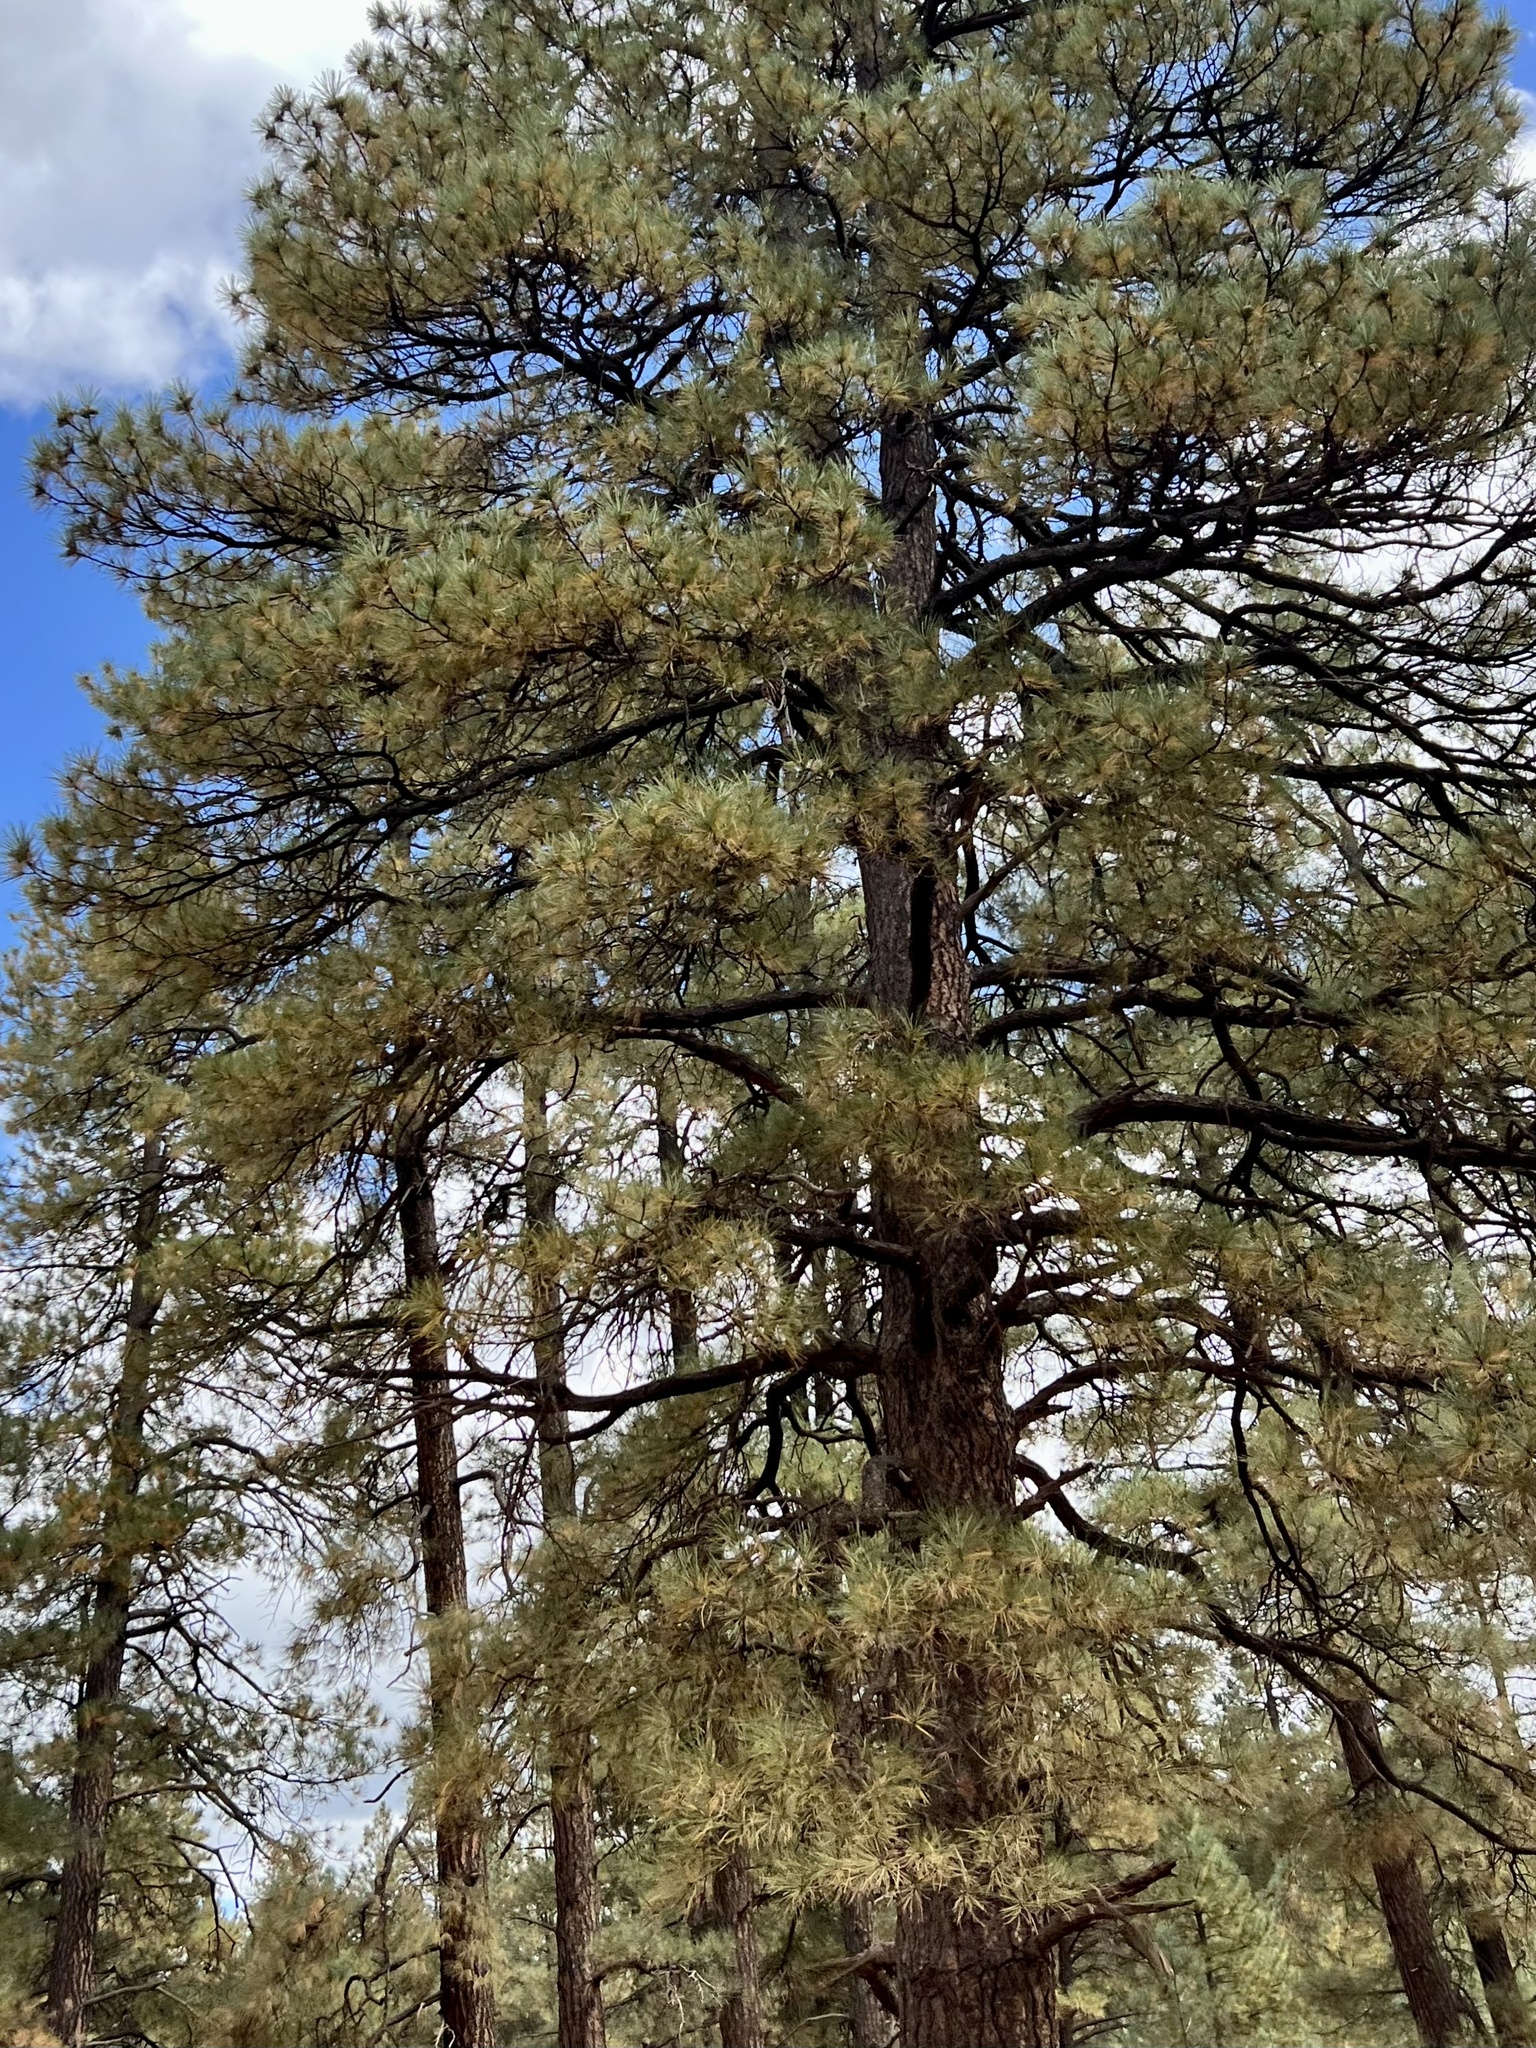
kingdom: Plantae
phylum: Tracheophyta
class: Pinopsida
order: Pinales
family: Pinaceae
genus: Pinus
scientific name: Pinus ponderosa
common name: Western yellow-pine
